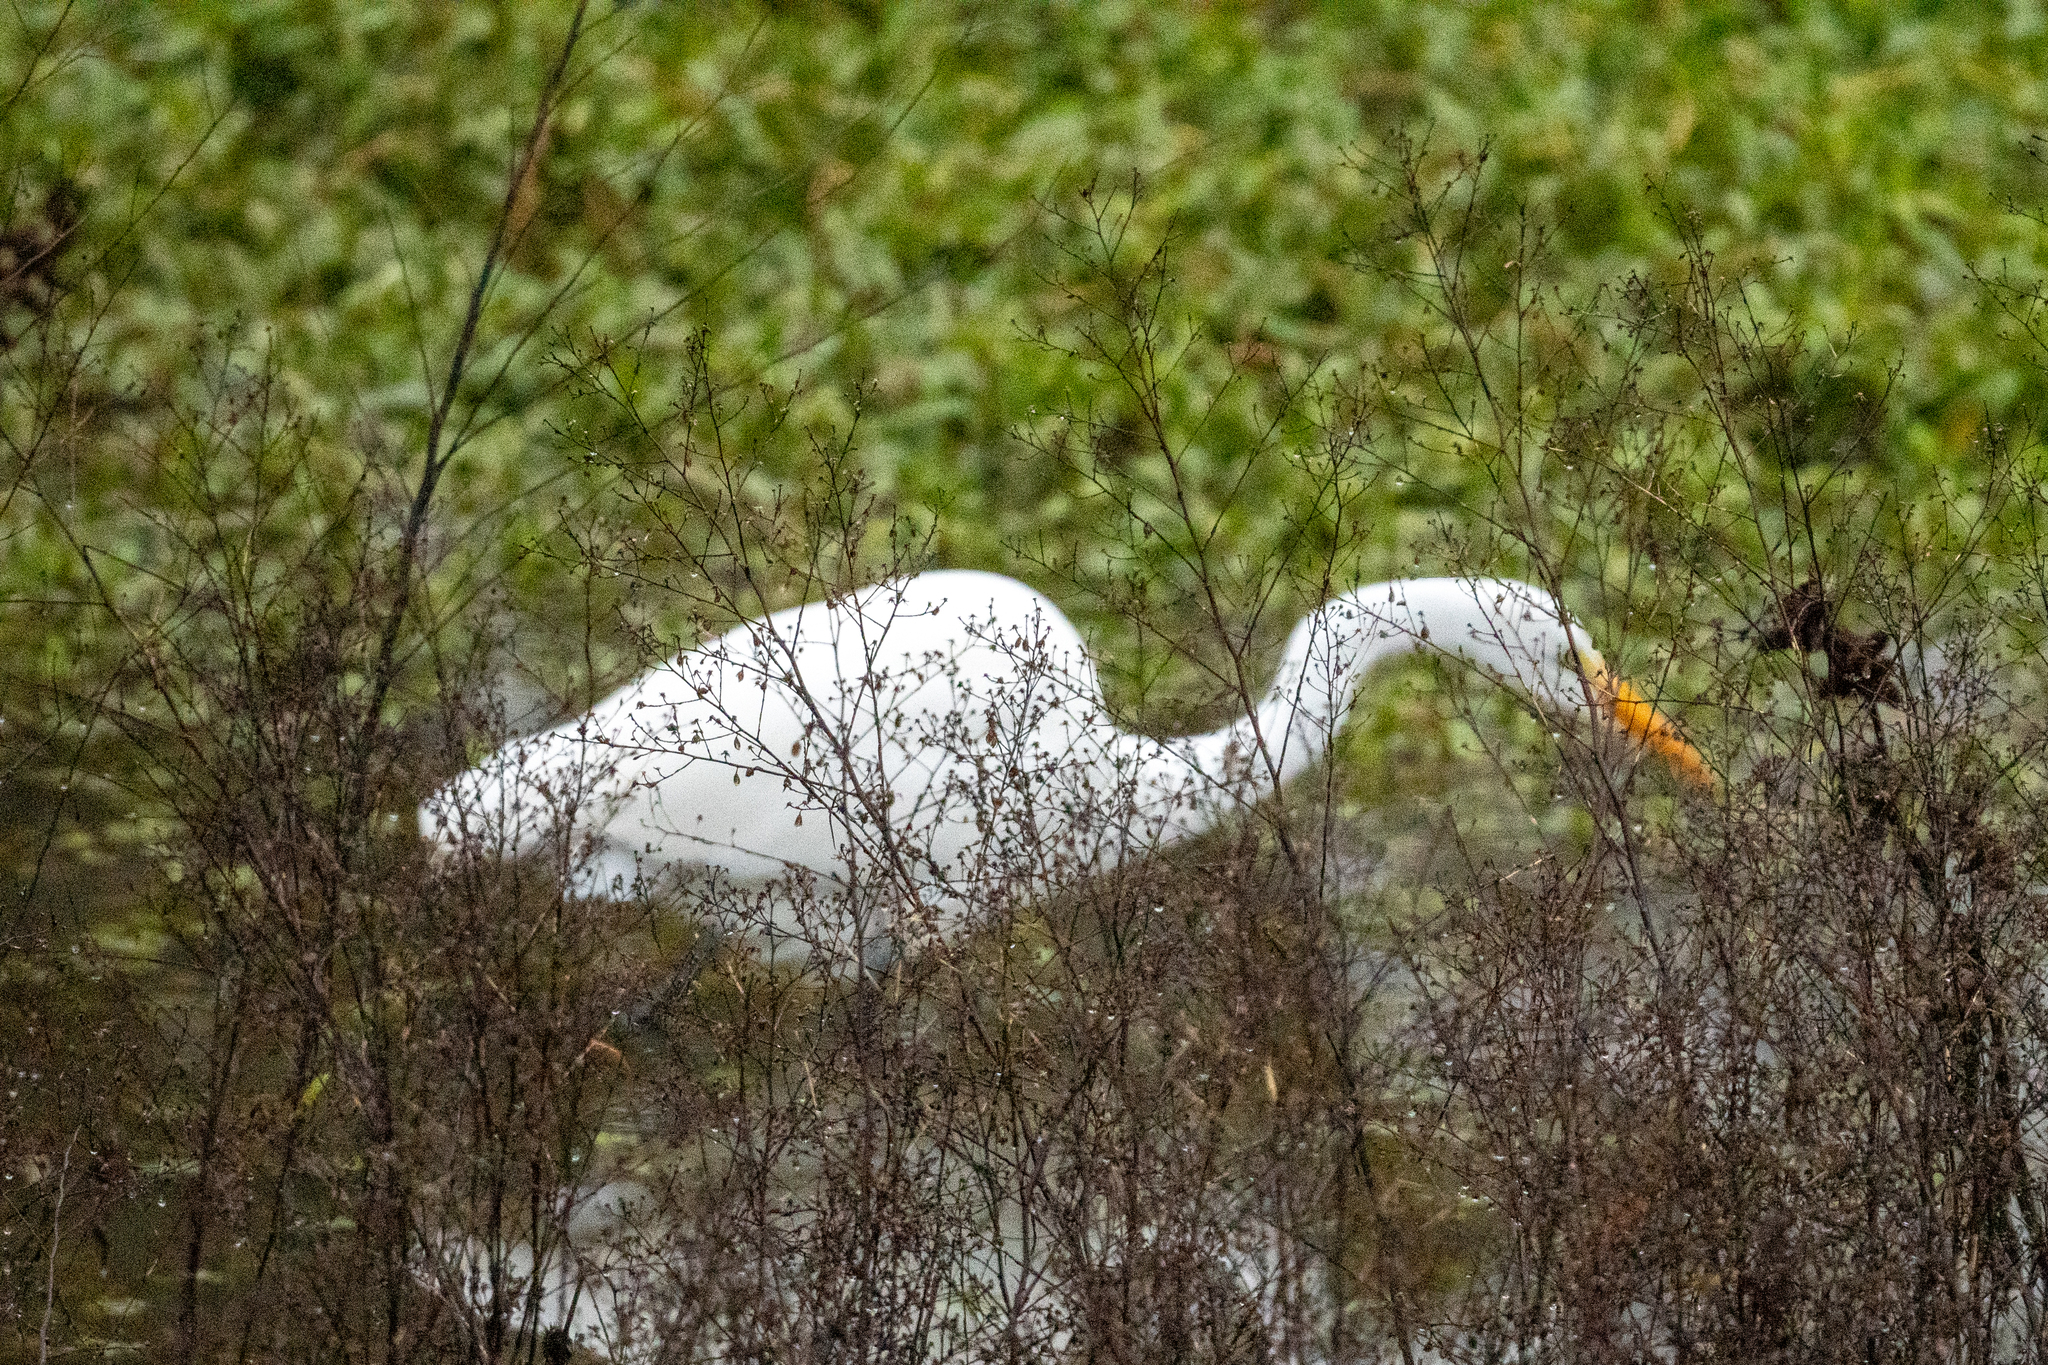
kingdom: Animalia
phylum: Chordata
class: Aves
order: Pelecaniformes
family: Ardeidae
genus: Ardea
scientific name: Ardea alba
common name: Great egret
